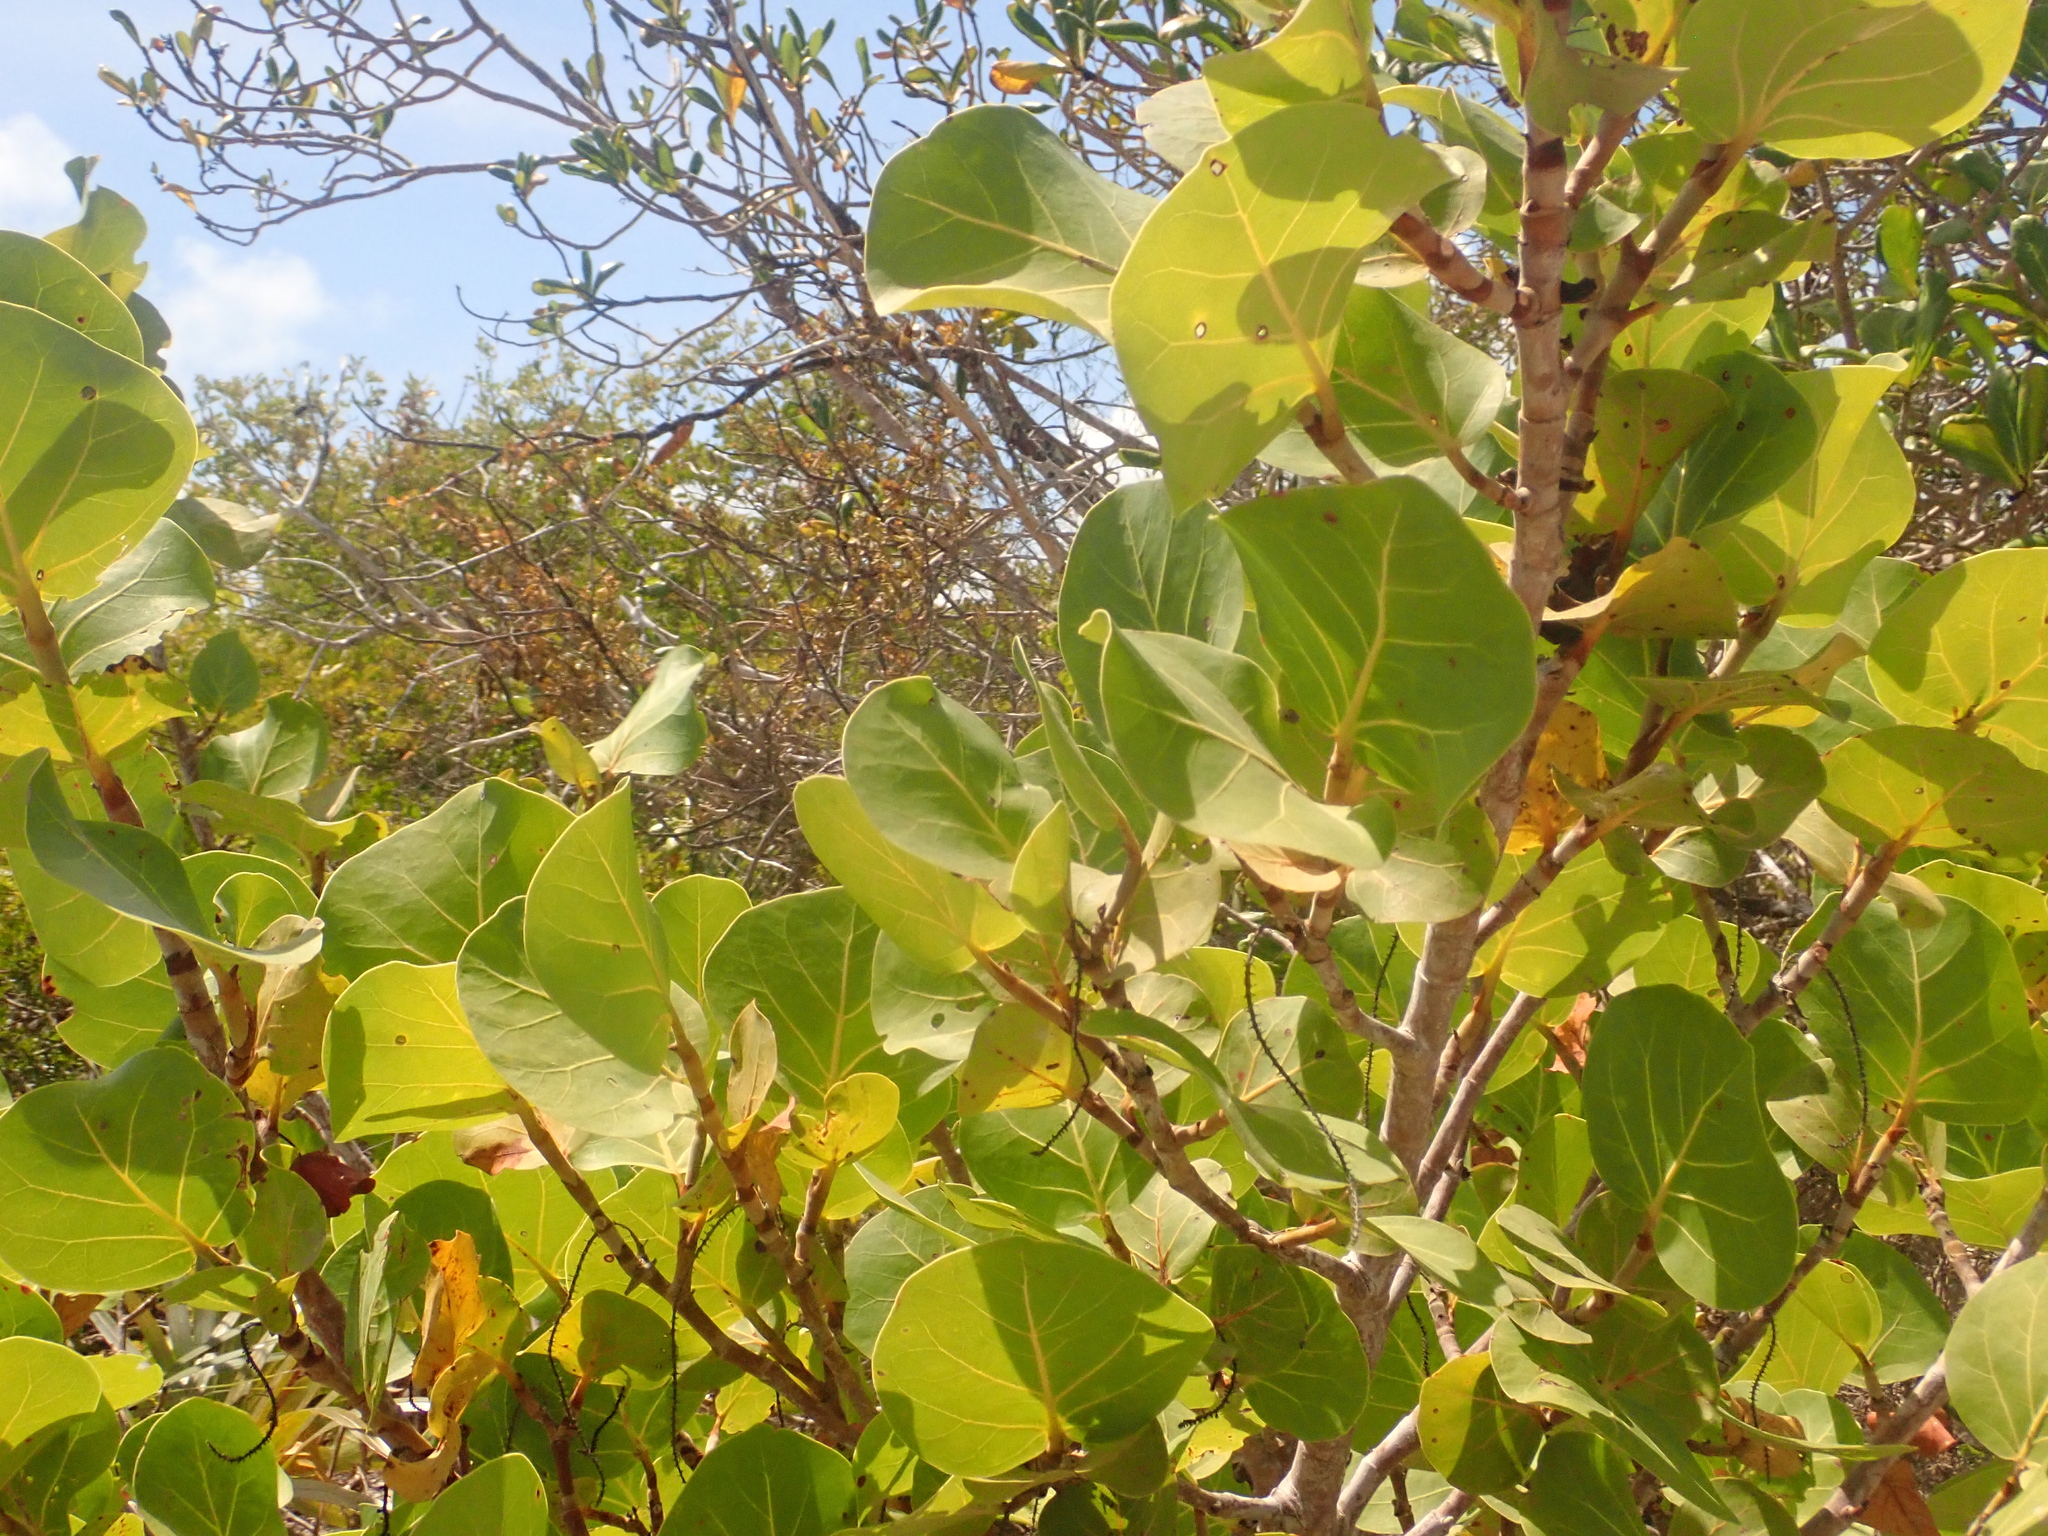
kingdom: Plantae
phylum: Tracheophyta
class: Magnoliopsida
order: Caryophyllales
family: Polygonaceae
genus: Coccoloba
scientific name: Coccoloba uvifera
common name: Seagrape
